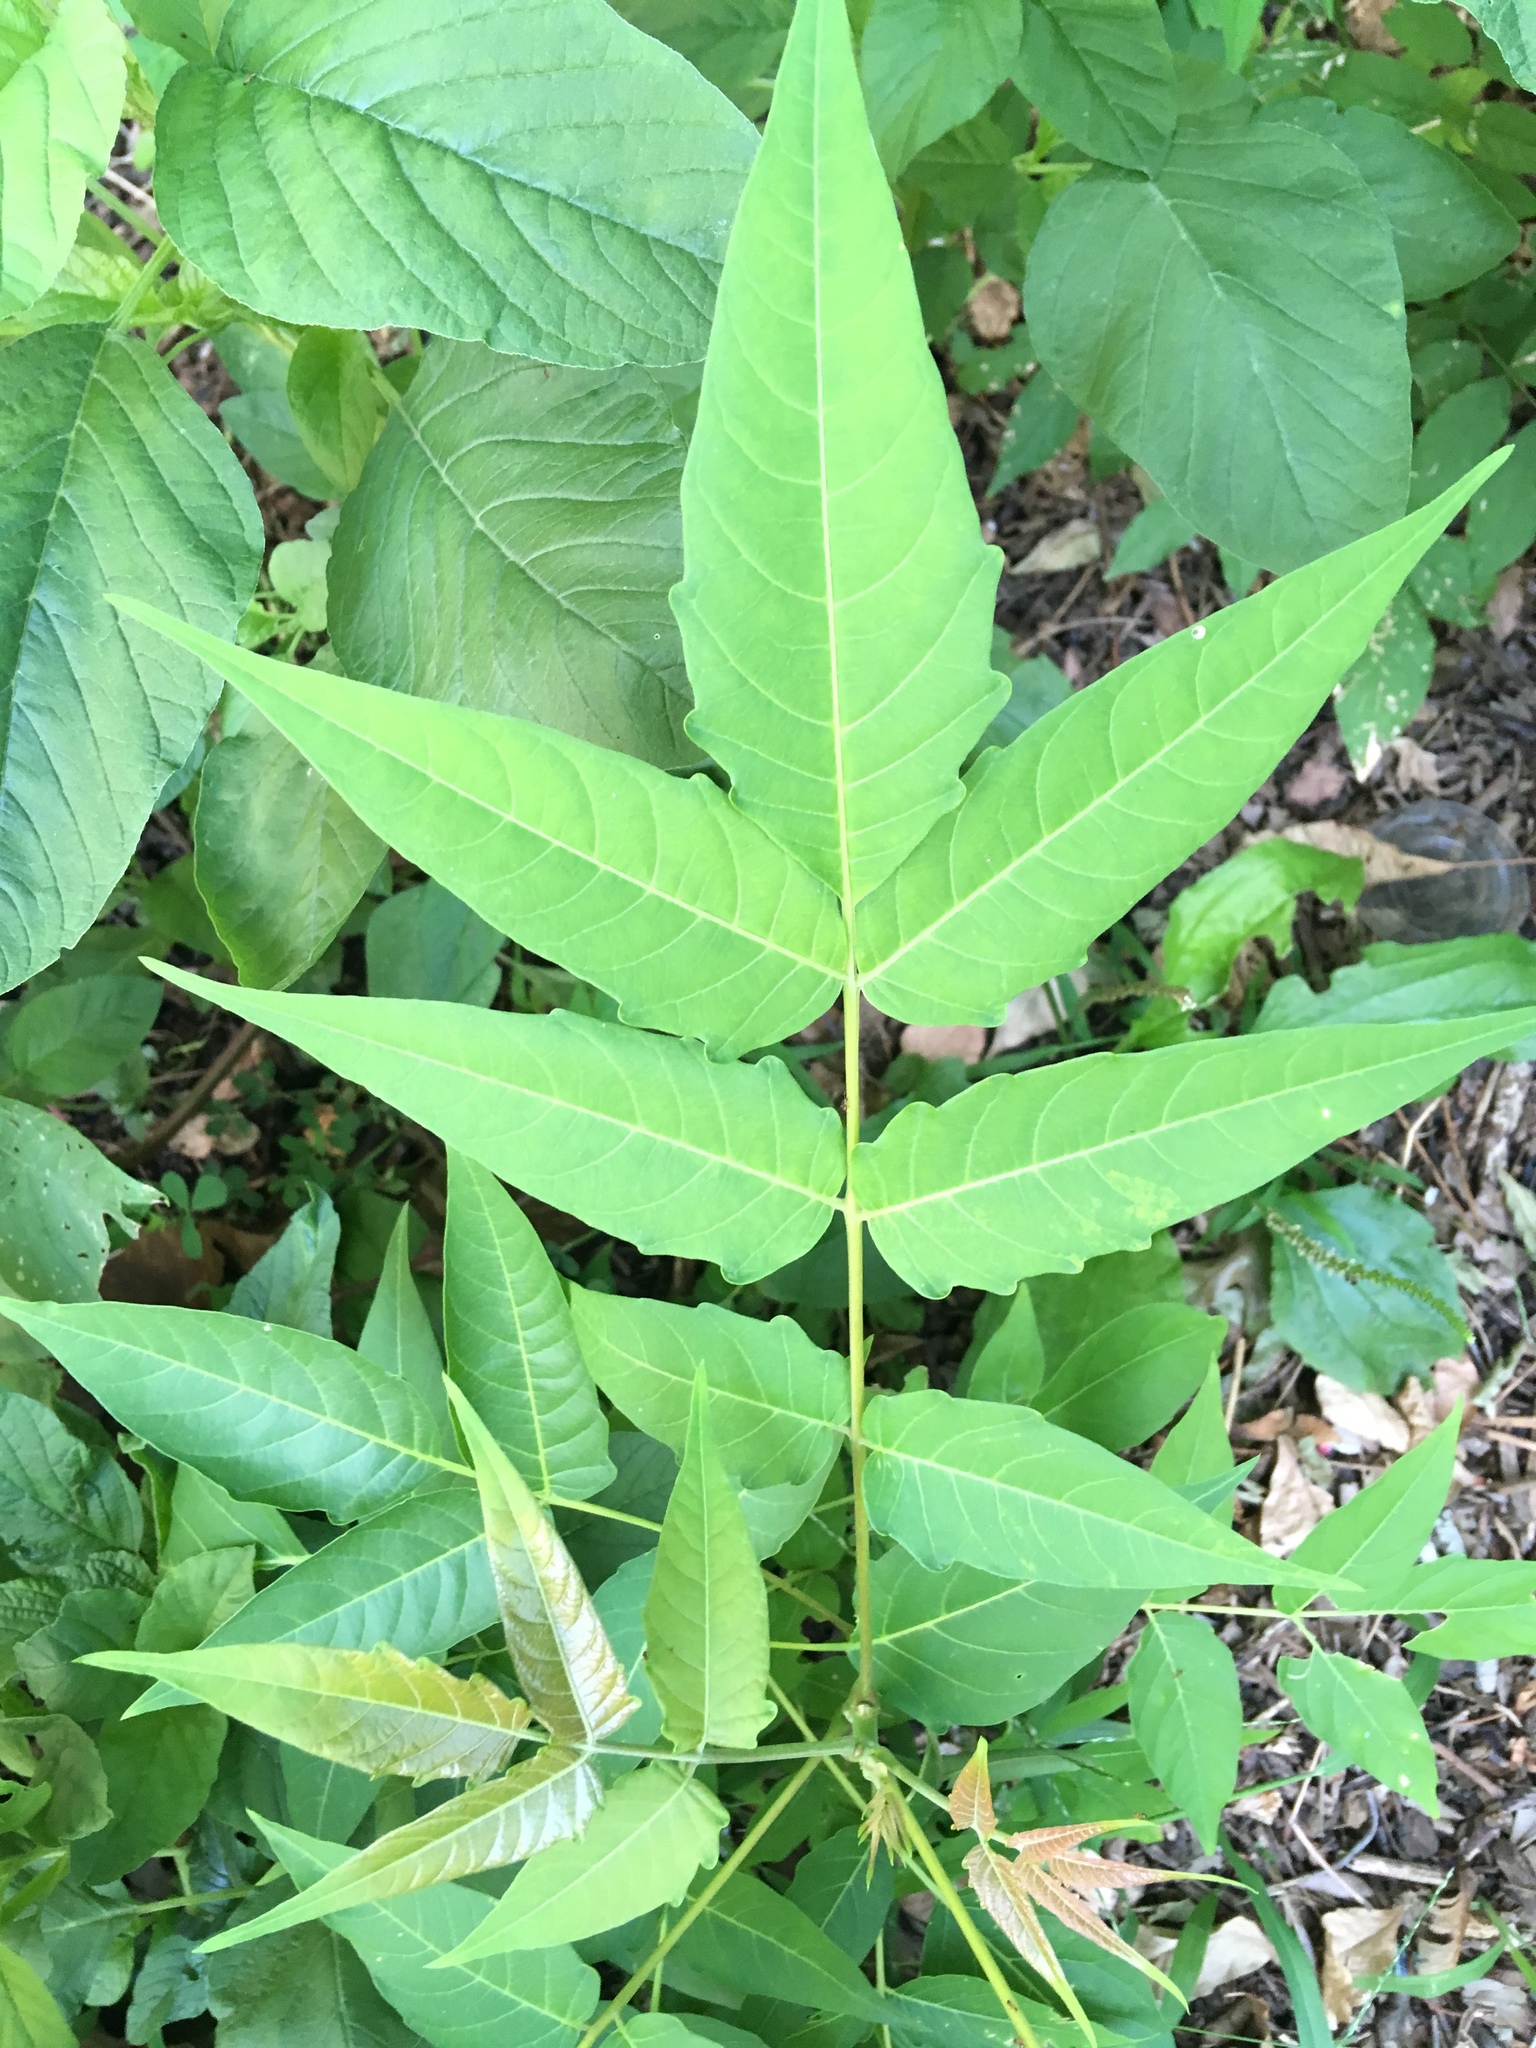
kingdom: Plantae
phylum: Tracheophyta
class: Magnoliopsida
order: Sapindales
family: Simaroubaceae
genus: Ailanthus
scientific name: Ailanthus altissima
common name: Tree-of-heaven
